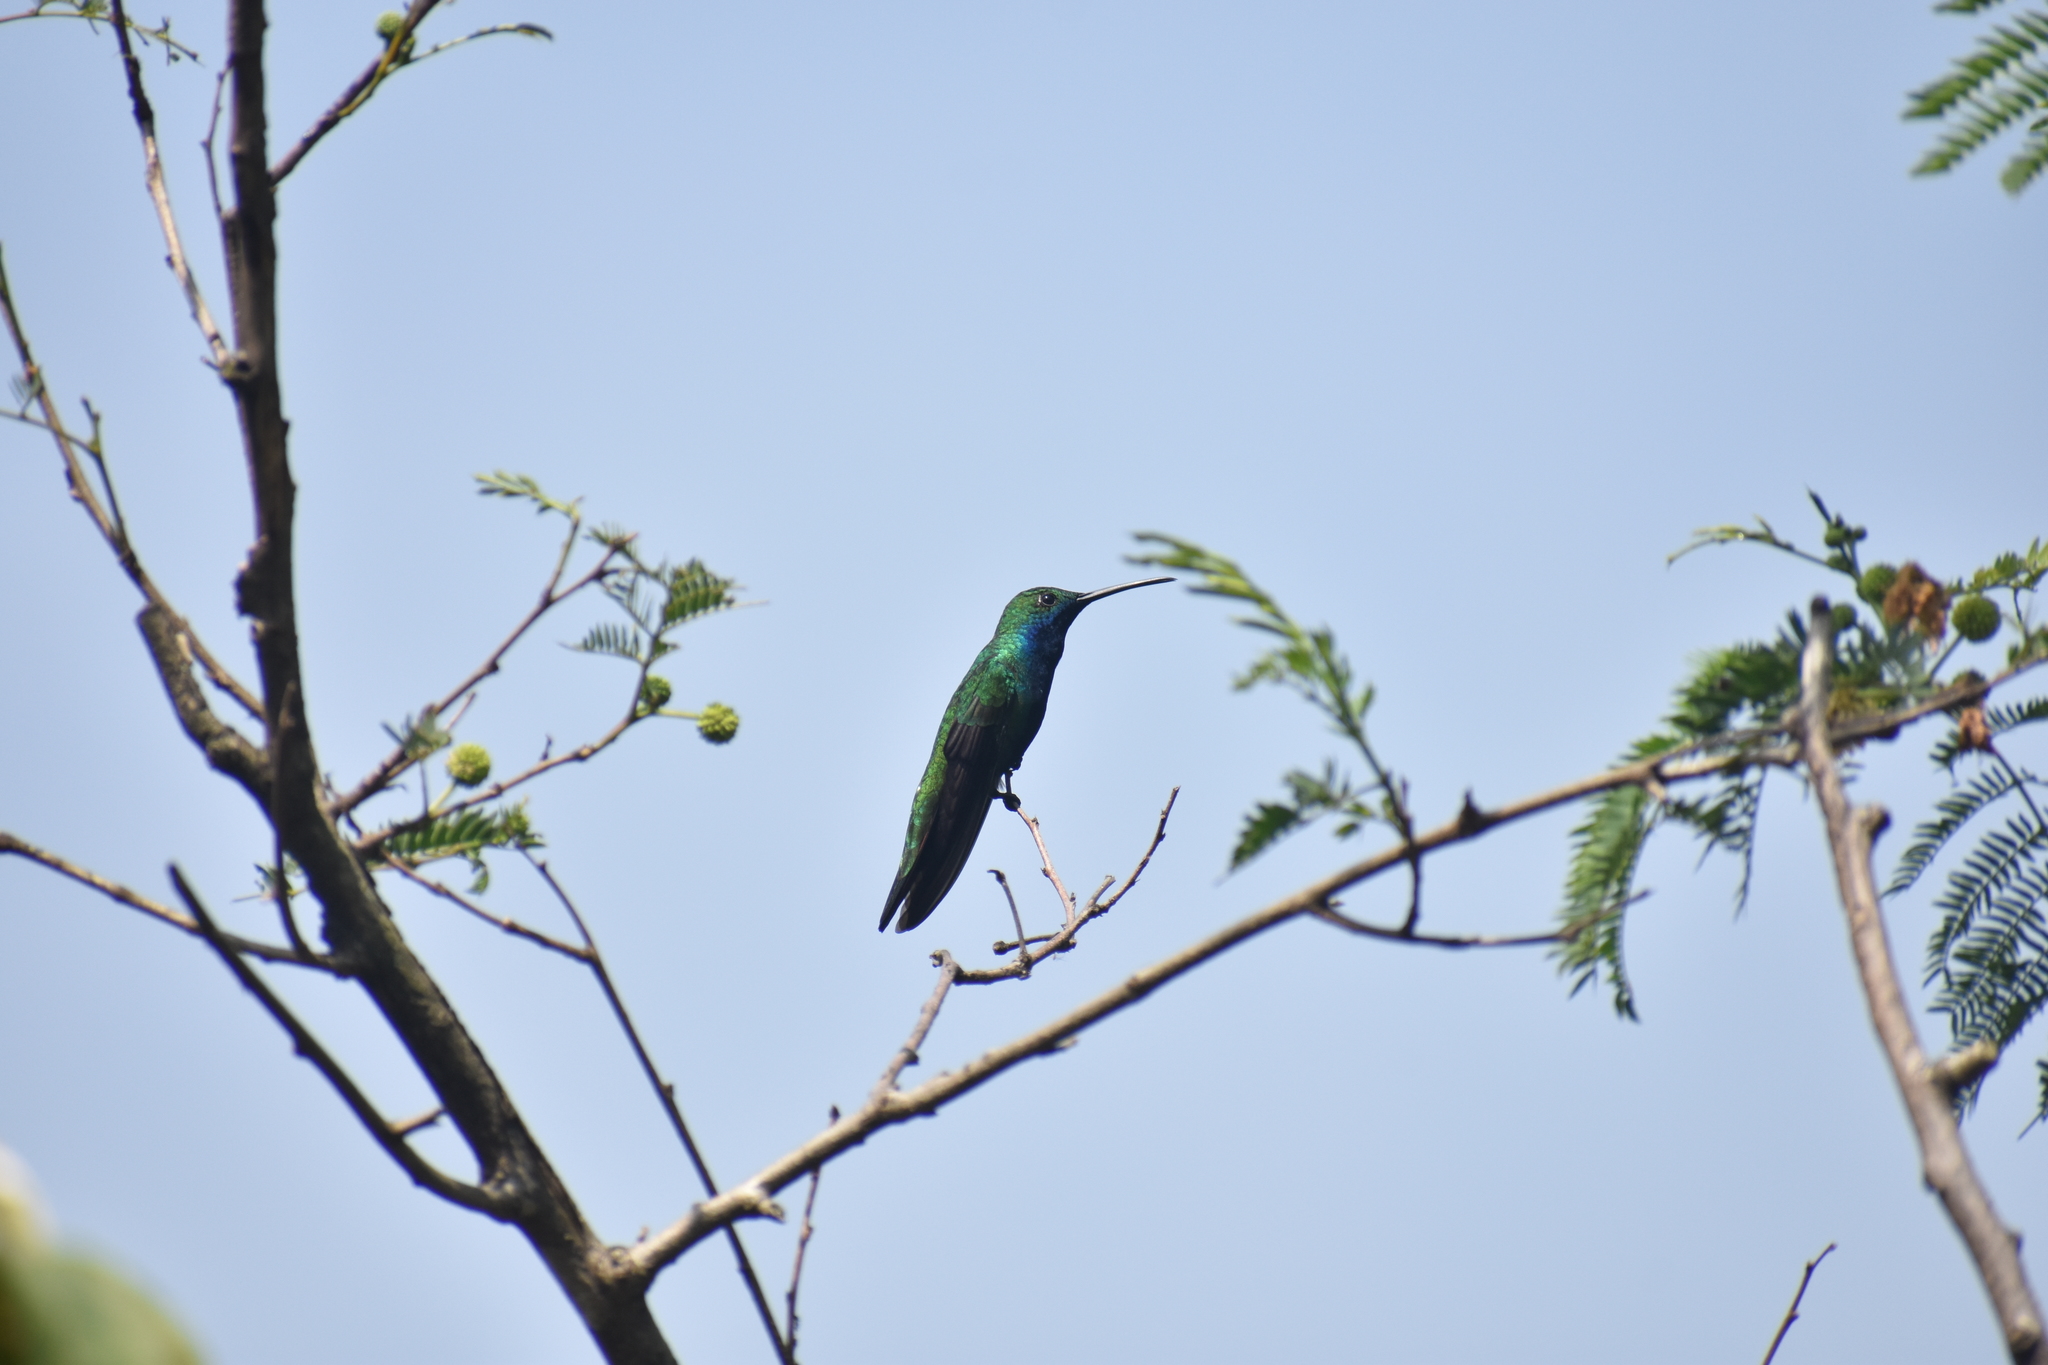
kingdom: Animalia
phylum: Chordata
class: Aves
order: Apodiformes
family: Trochilidae
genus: Anthracothorax
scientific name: Anthracothorax nigricollis
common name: Black-throated mango
